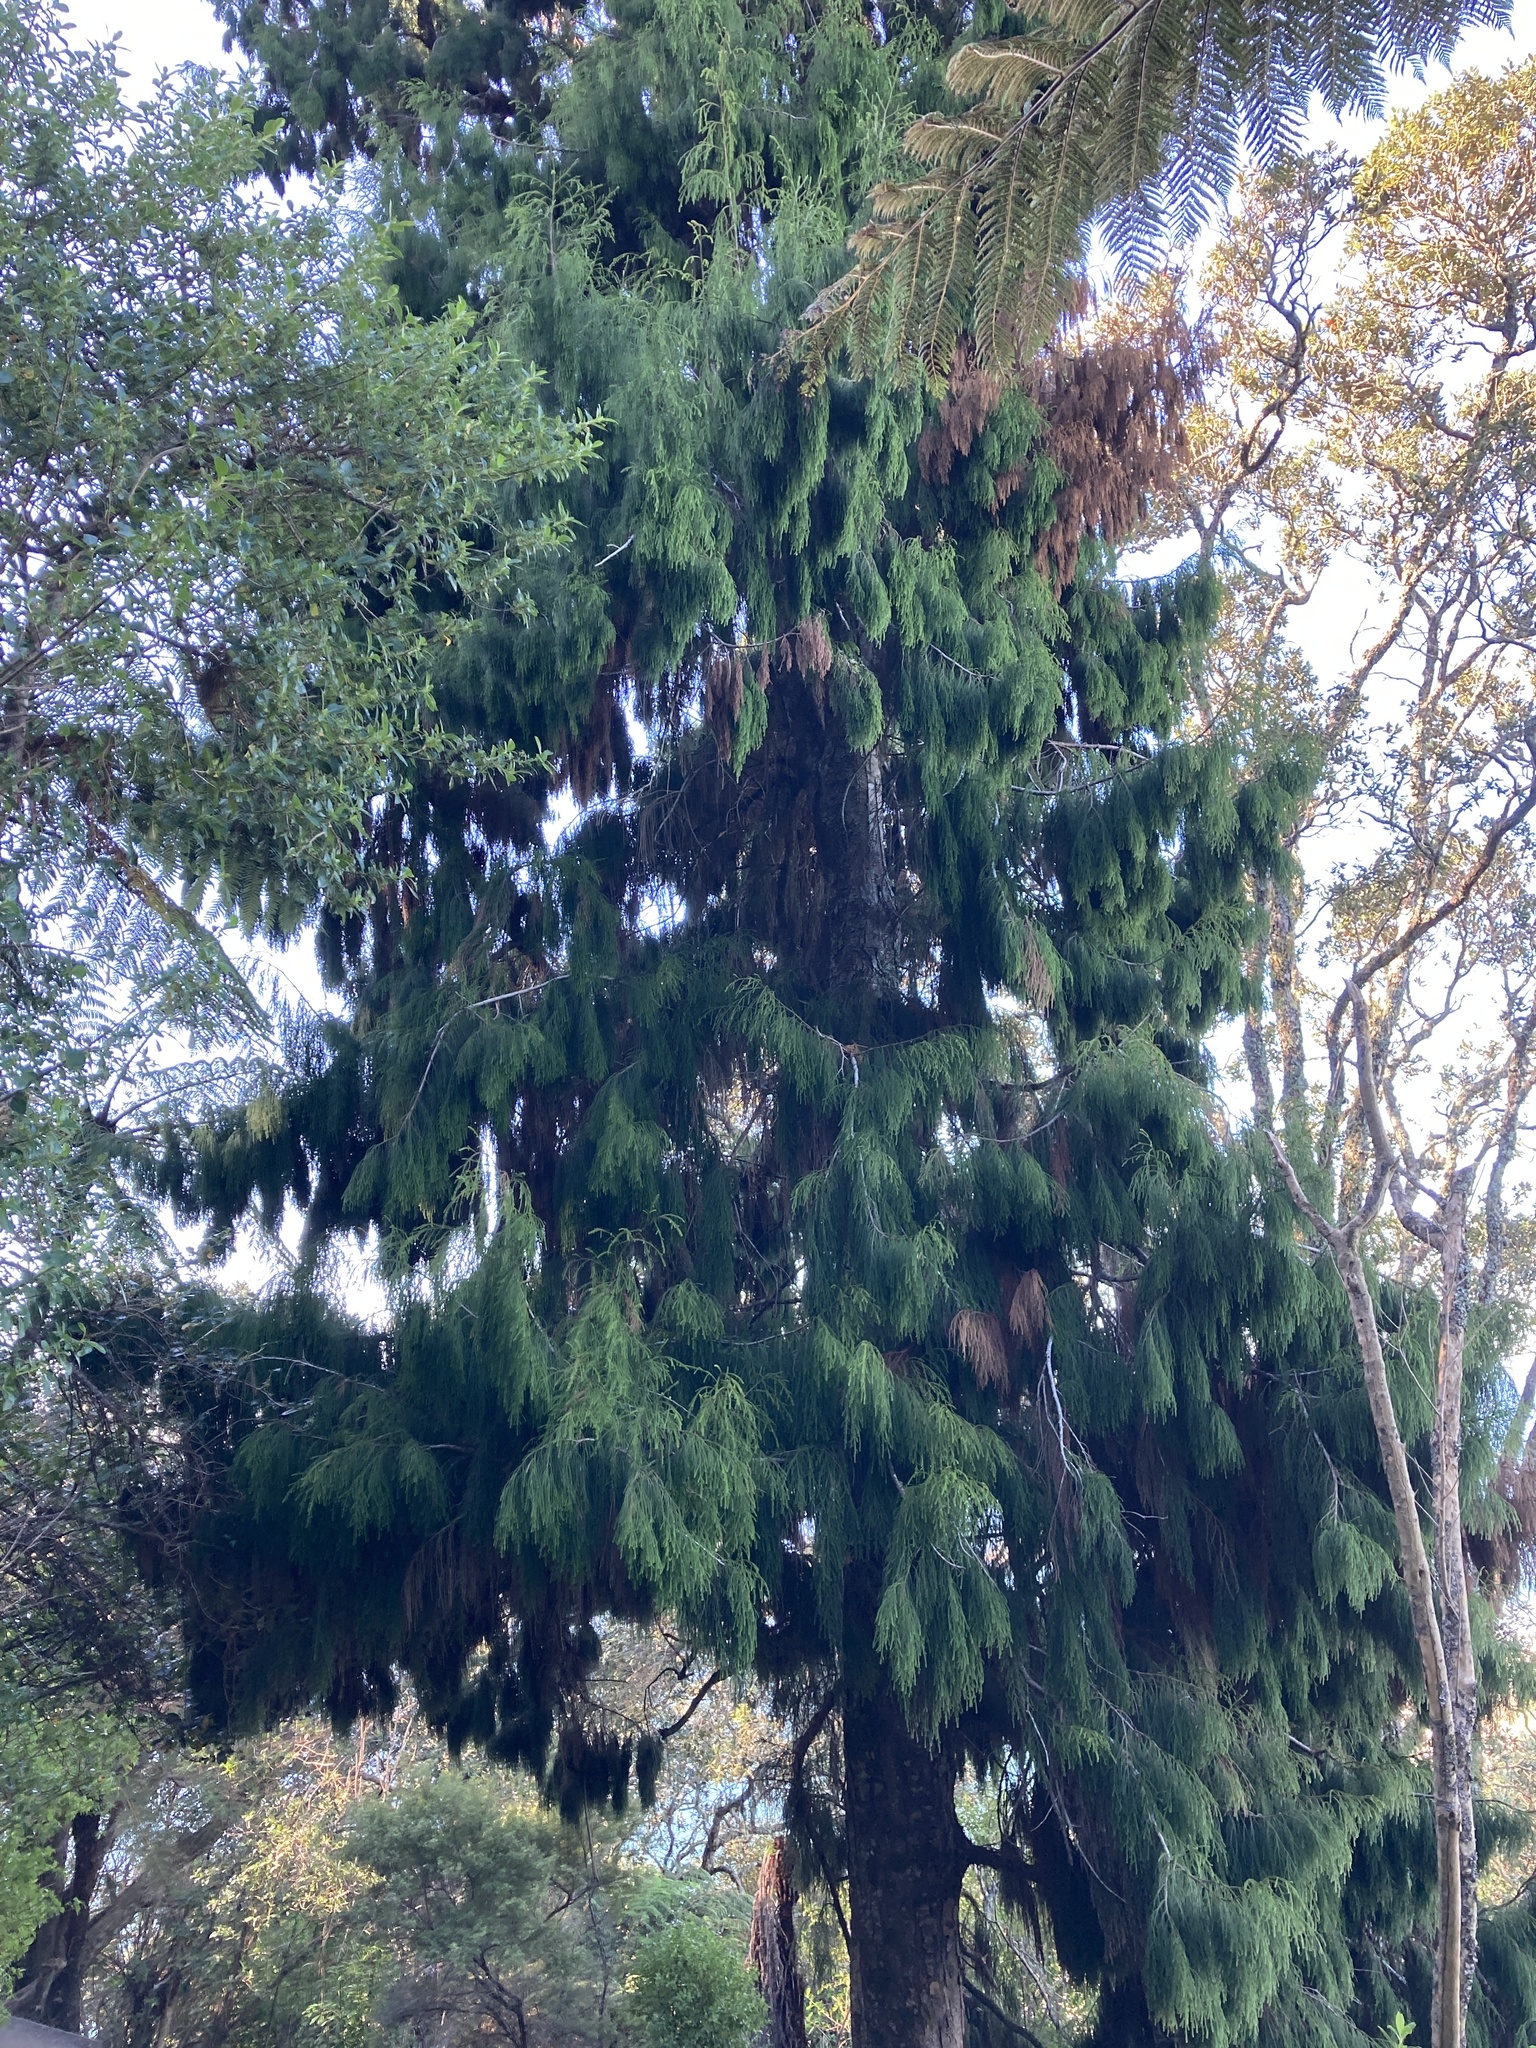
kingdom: Plantae
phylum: Tracheophyta
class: Pinopsida
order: Pinales
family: Podocarpaceae
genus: Dacrydium
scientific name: Dacrydium cupressinum
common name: Red pine
